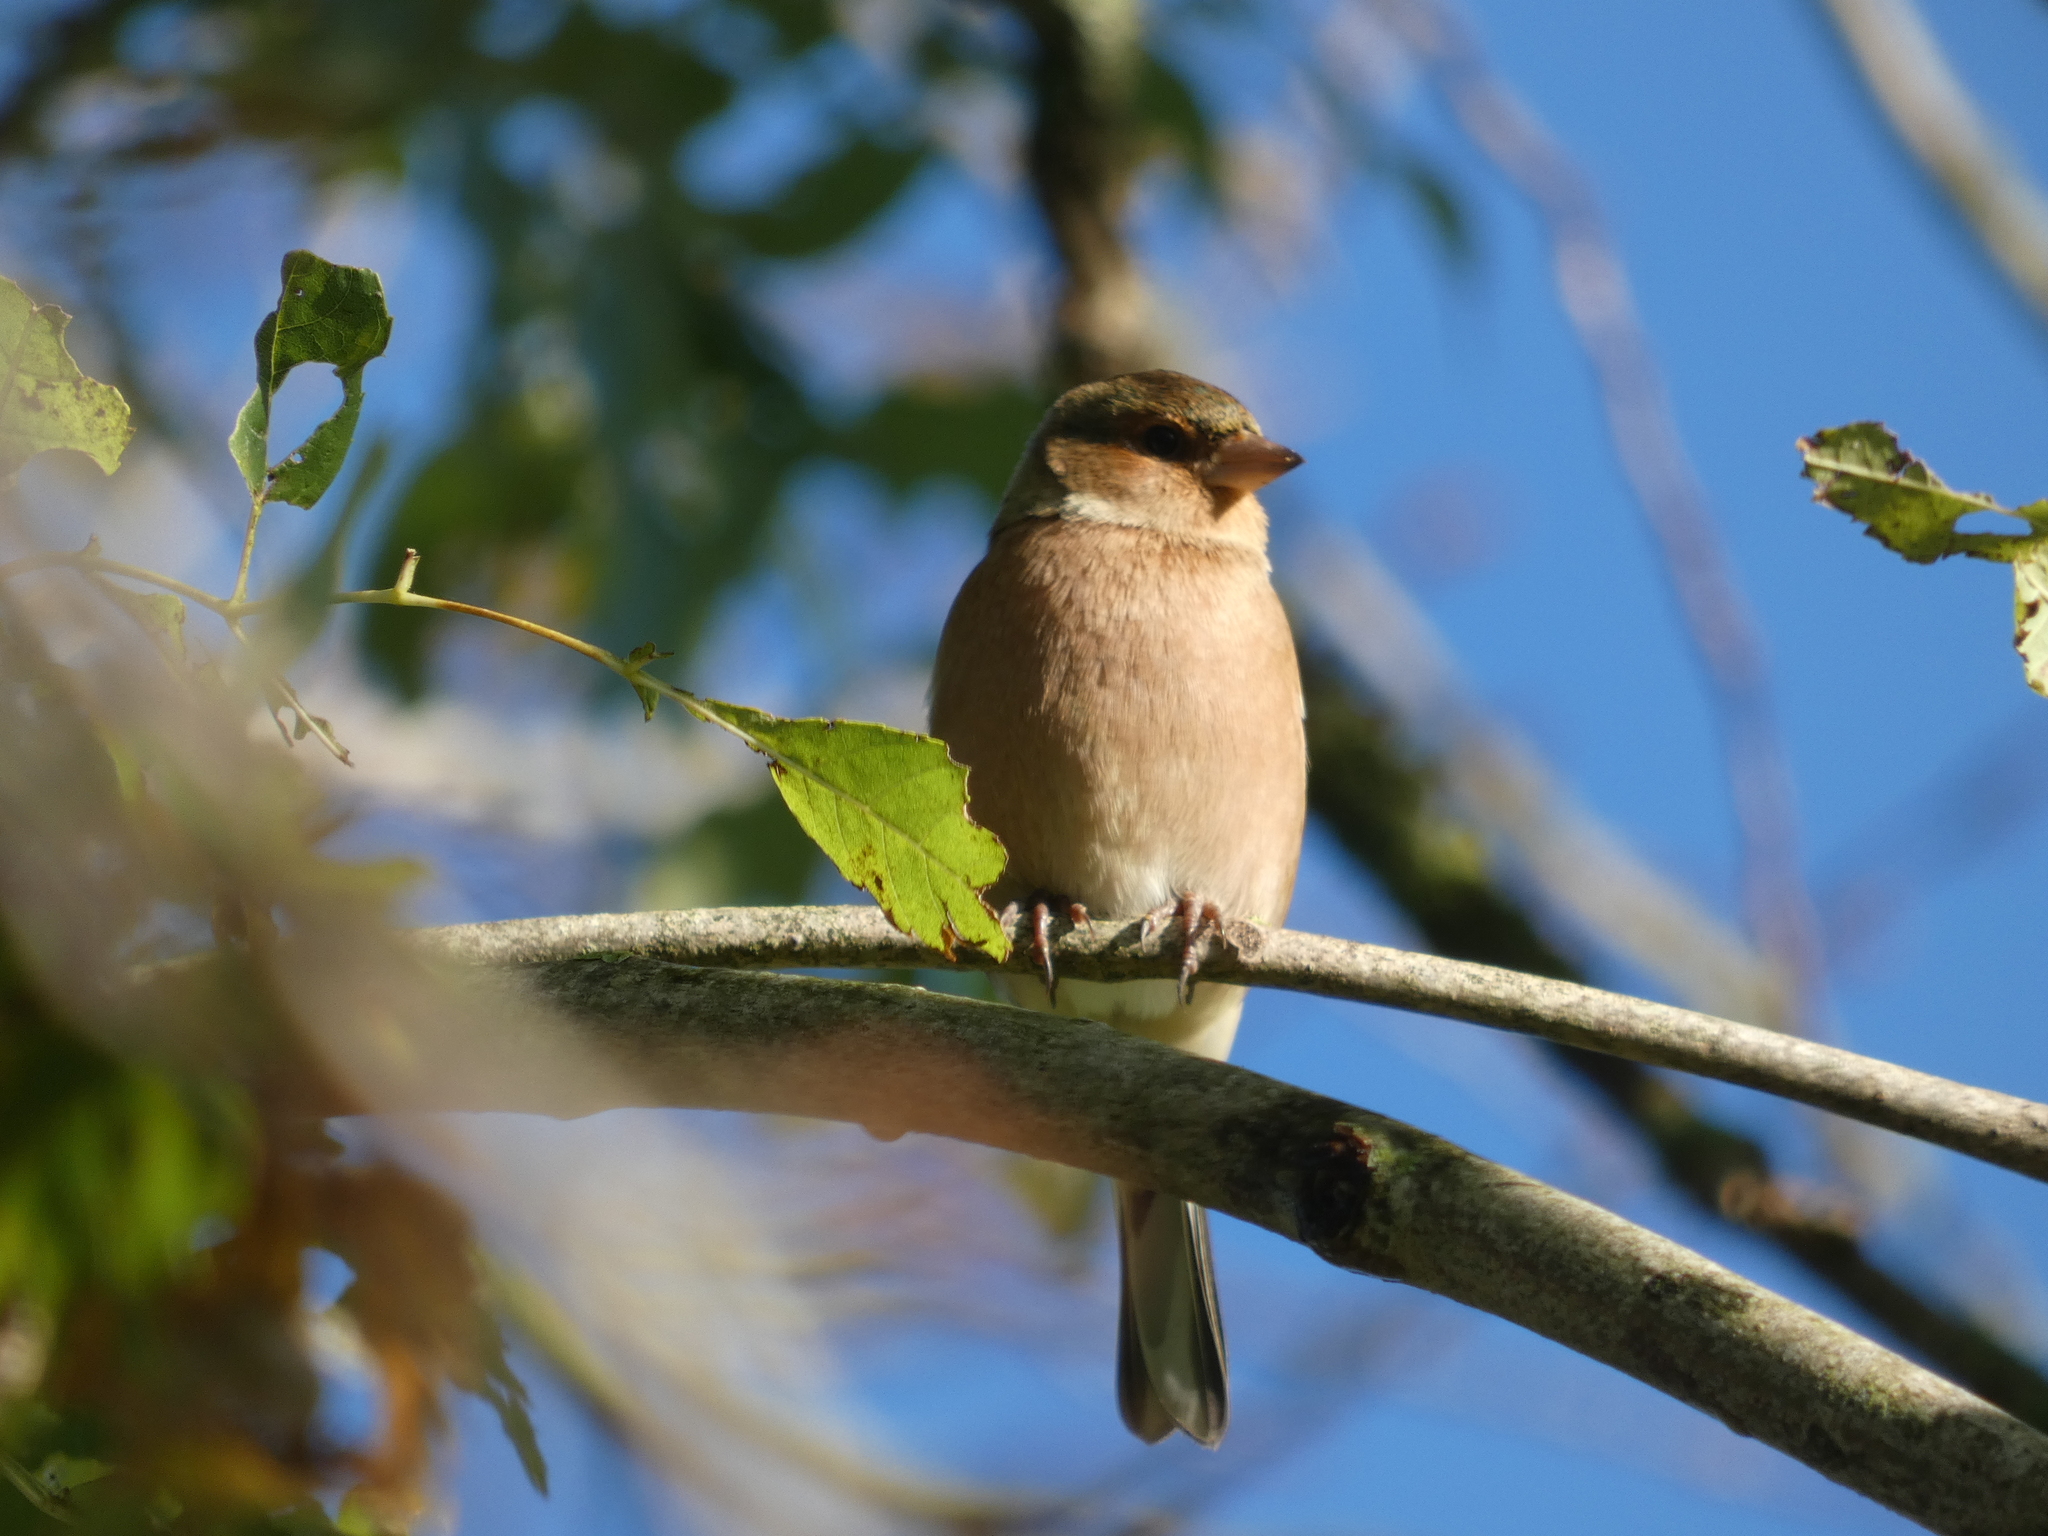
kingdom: Animalia
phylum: Chordata
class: Aves
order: Passeriformes
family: Fringillidae
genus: Fringilla
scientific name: Fringilla coelebs
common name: Common chaffinch
